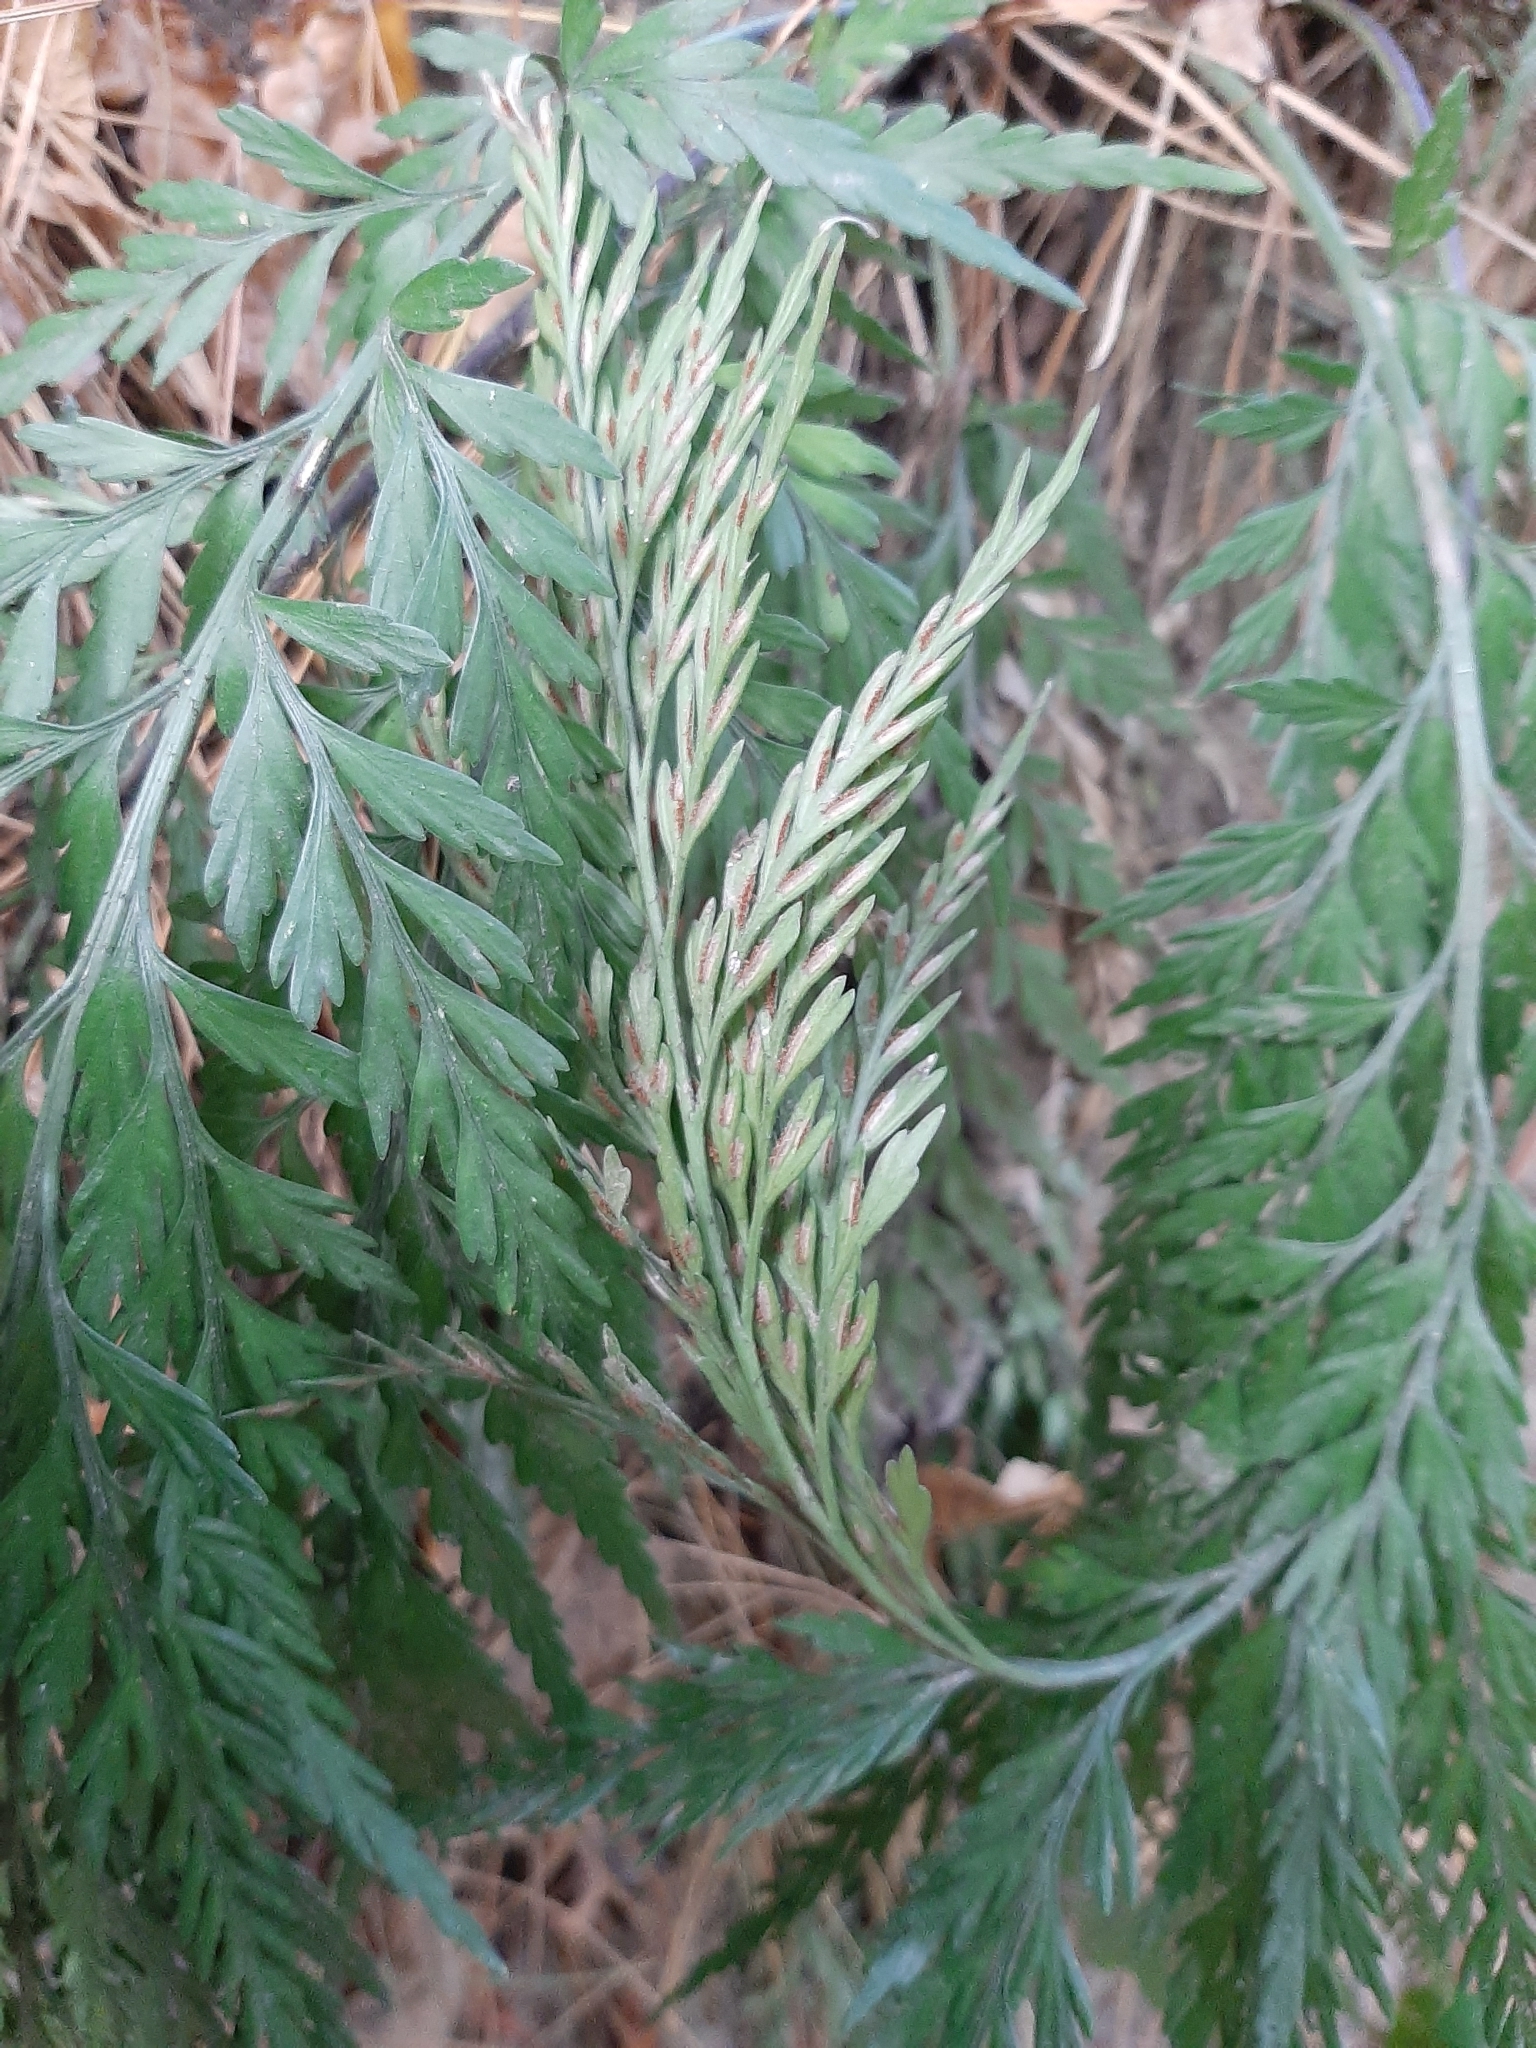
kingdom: Plantae
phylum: Tracheophyta
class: Polypodiopsida
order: Polypodiales
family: Aspleniaceae
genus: Asplenium
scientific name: Asplenium appendiculatum
